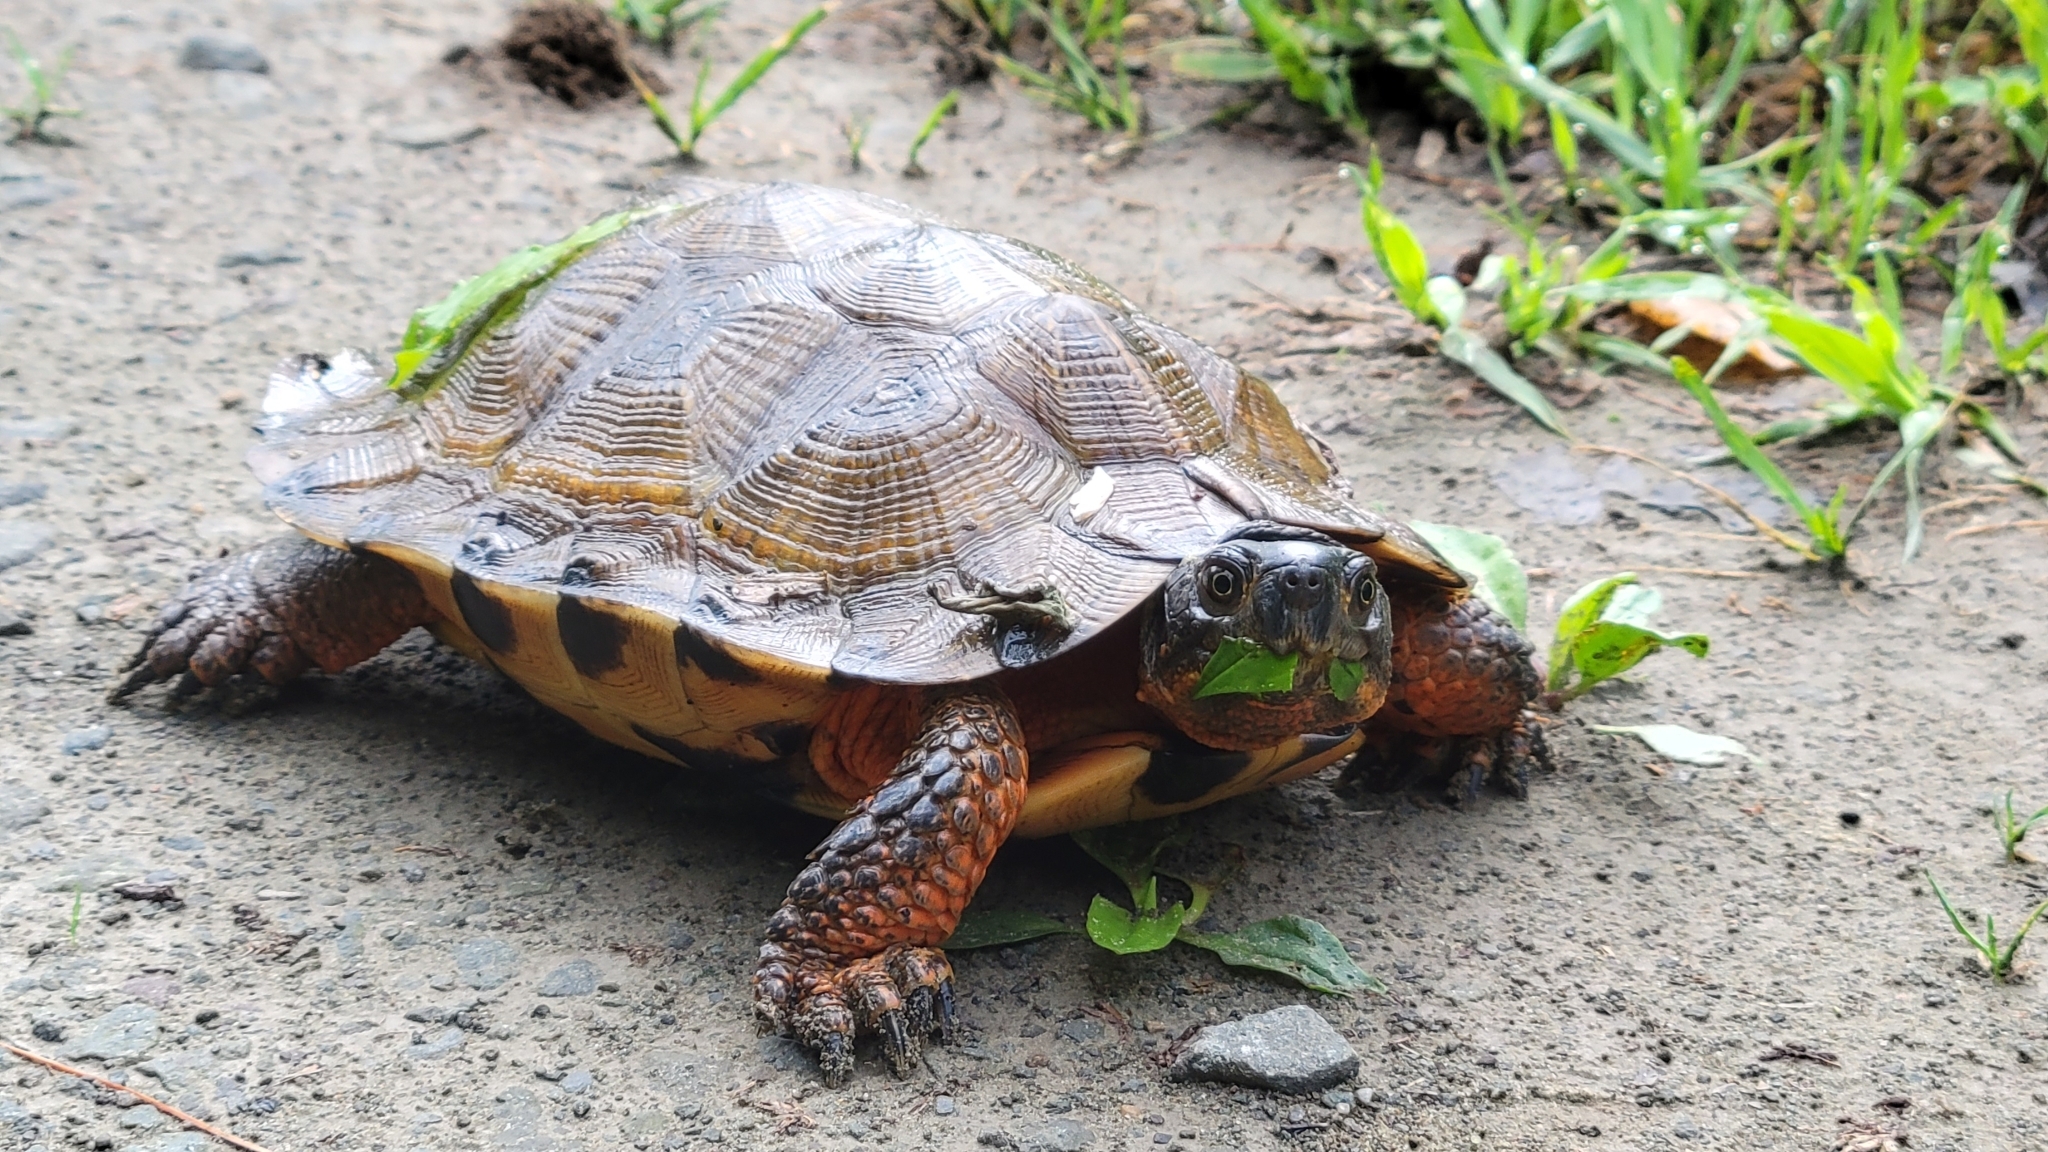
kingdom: Animalia
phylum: Chordata
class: Testudines
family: Emydidae
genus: Glyptemys
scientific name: Glyptemys insculpta
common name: Wood turtle
